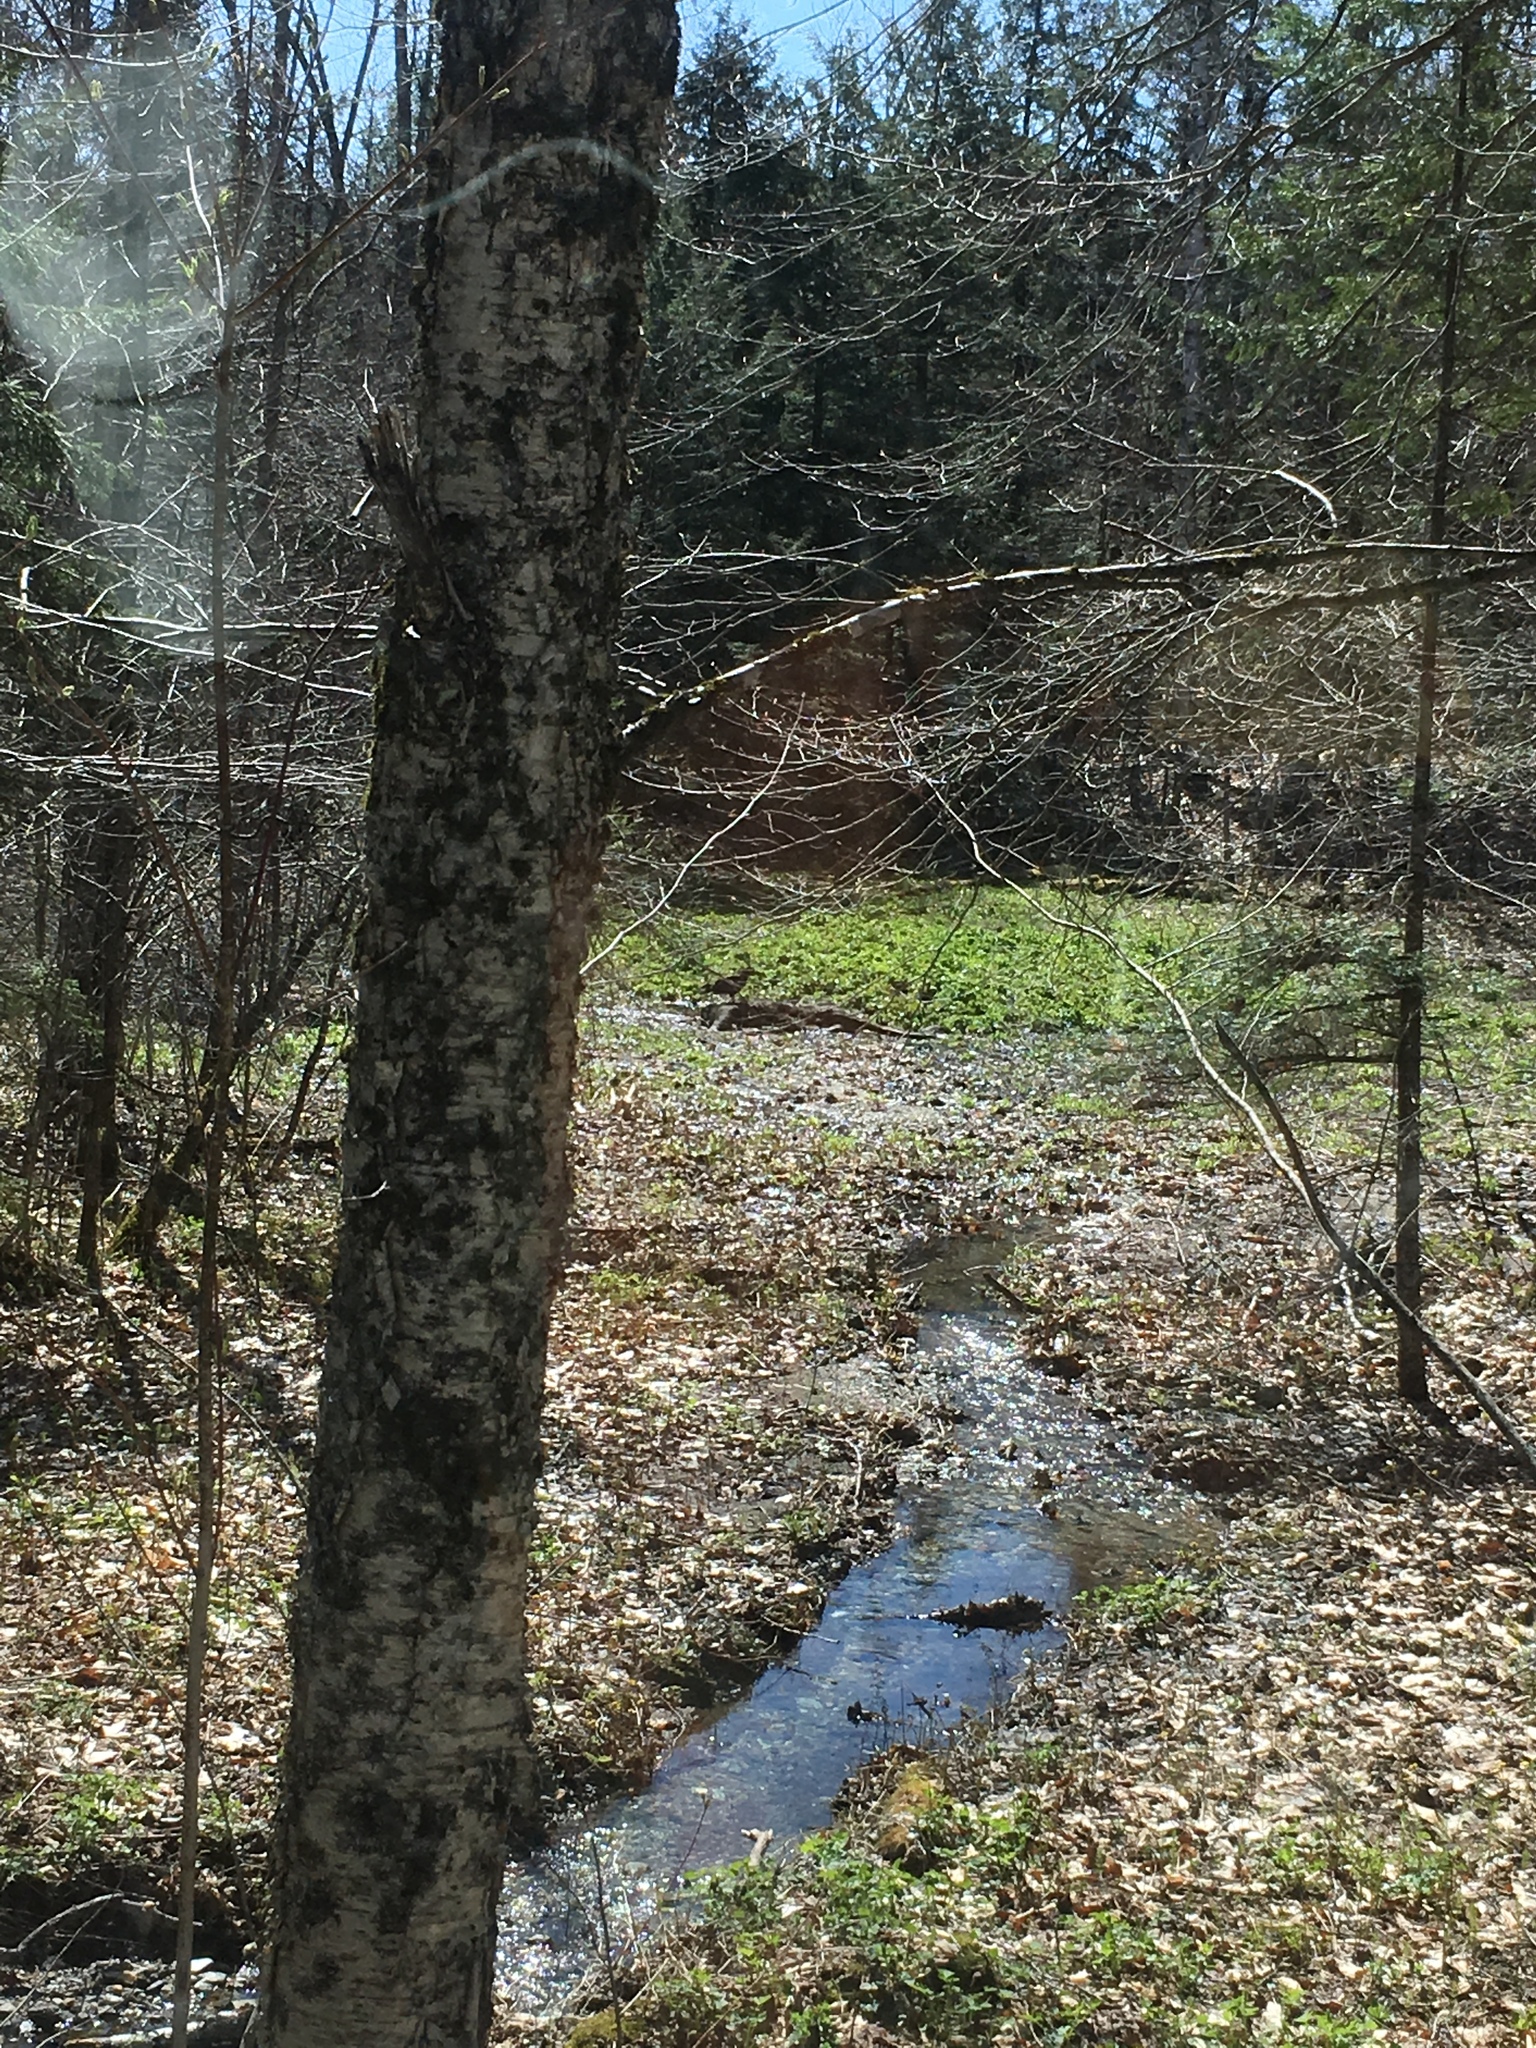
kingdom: Plantae
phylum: Tracheophyta
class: Magnoliopsida
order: Fagales
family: Betulaceae
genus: Betula
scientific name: Betula alleghaniensis
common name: Yellow birch
